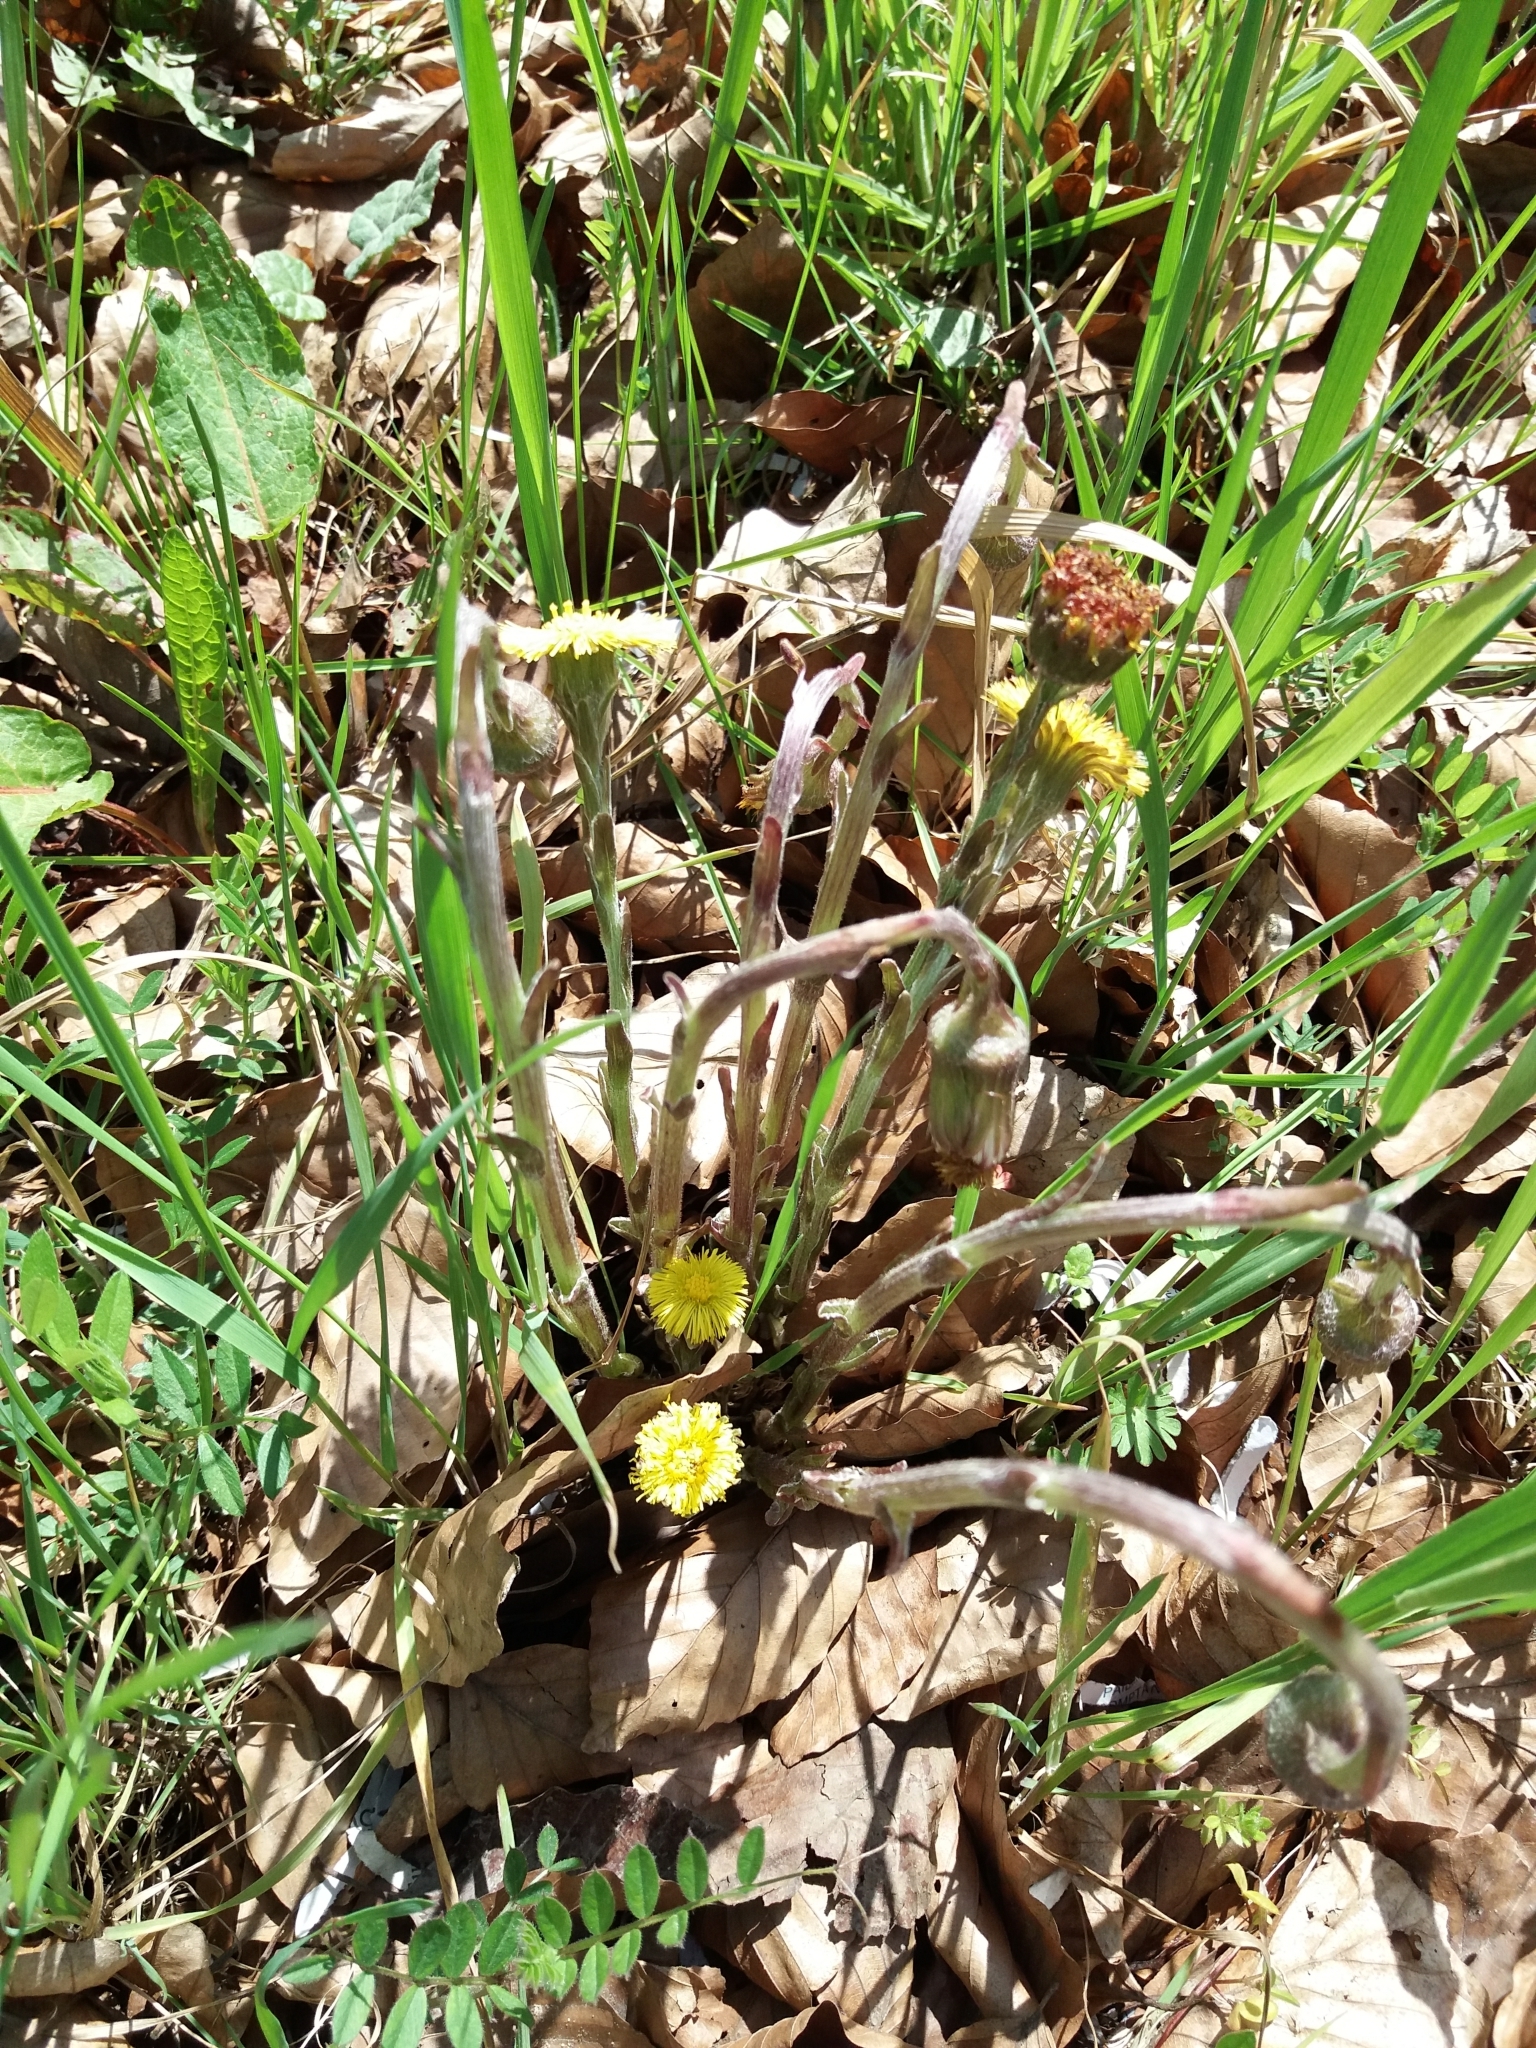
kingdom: Plantae
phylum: Tracheophyta
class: Magnoliopsida
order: Asterales
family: Asteraceae
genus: Tussilago
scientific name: Tussilago farfara
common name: Coltsfoot
